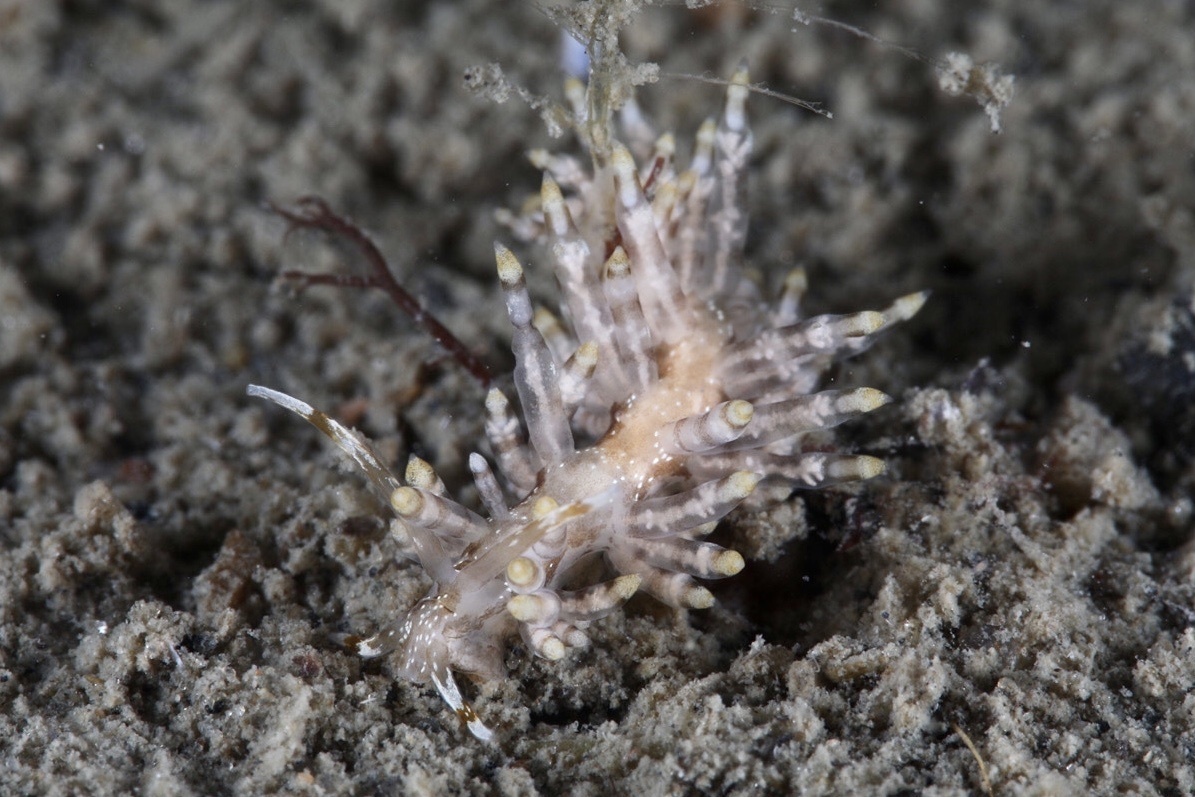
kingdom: Animalia
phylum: Mollusca
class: Gastropoda
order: Nudibranchia
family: Eubranchidae
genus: Eubranchus
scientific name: Eubranchus vittatus
